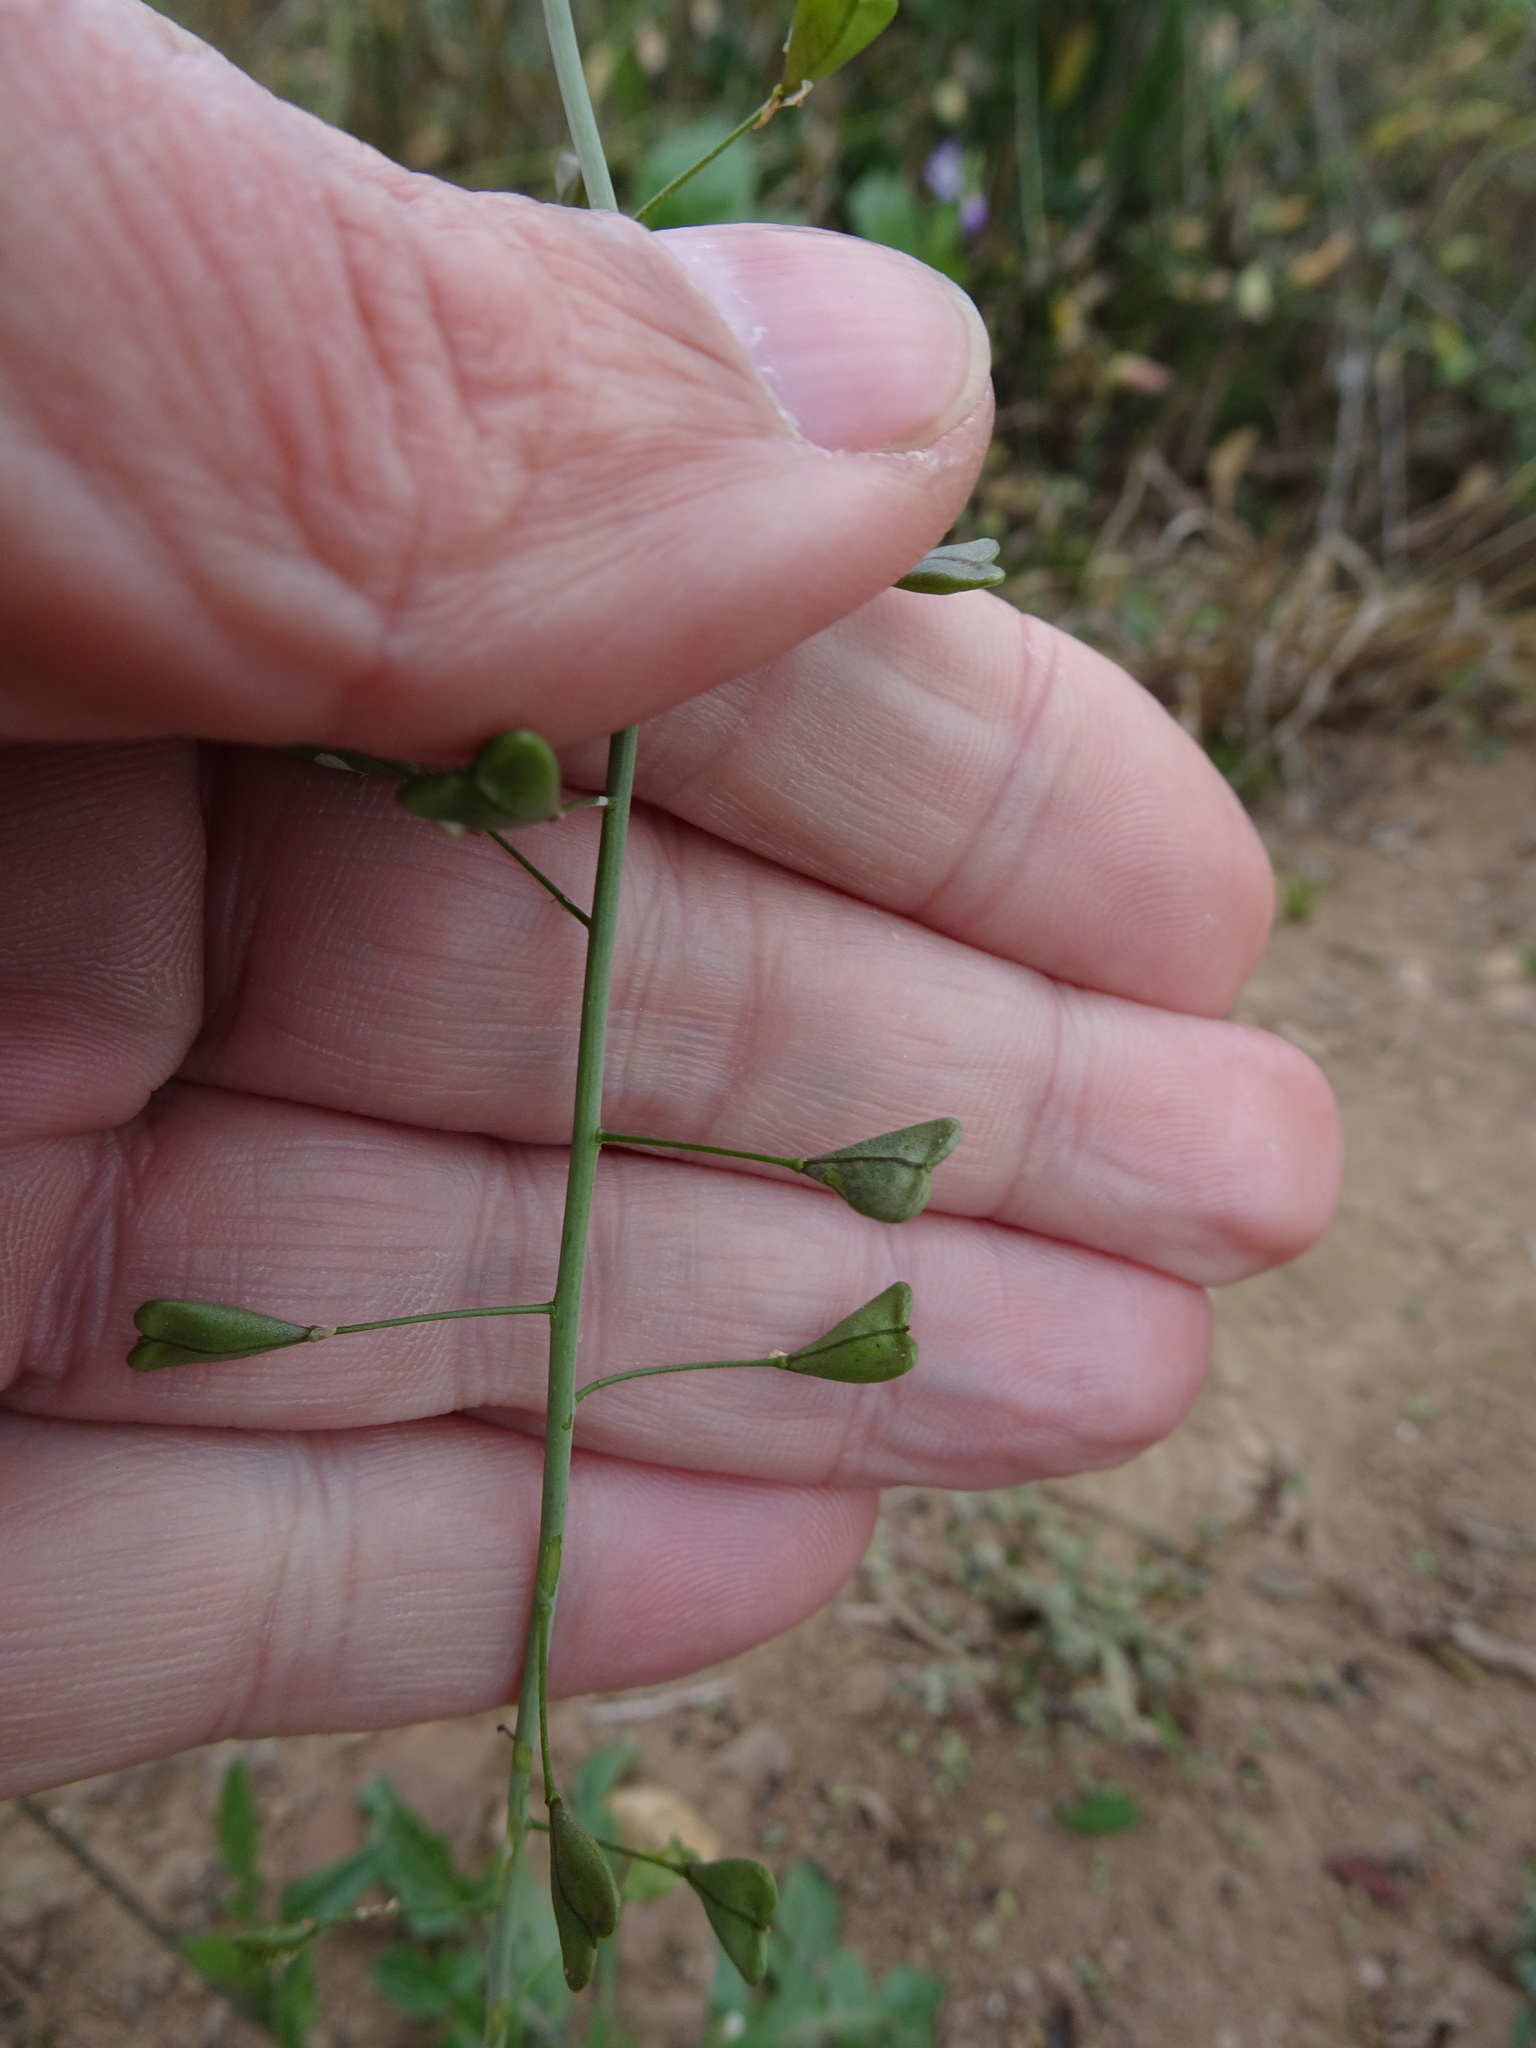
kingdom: Plantae
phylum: Tracheophyta
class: Magnoliopsida
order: Brassicales
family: Brassicaceae
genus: Capsella
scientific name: Capsella bursa-pastoris
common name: Shepherd's purse
